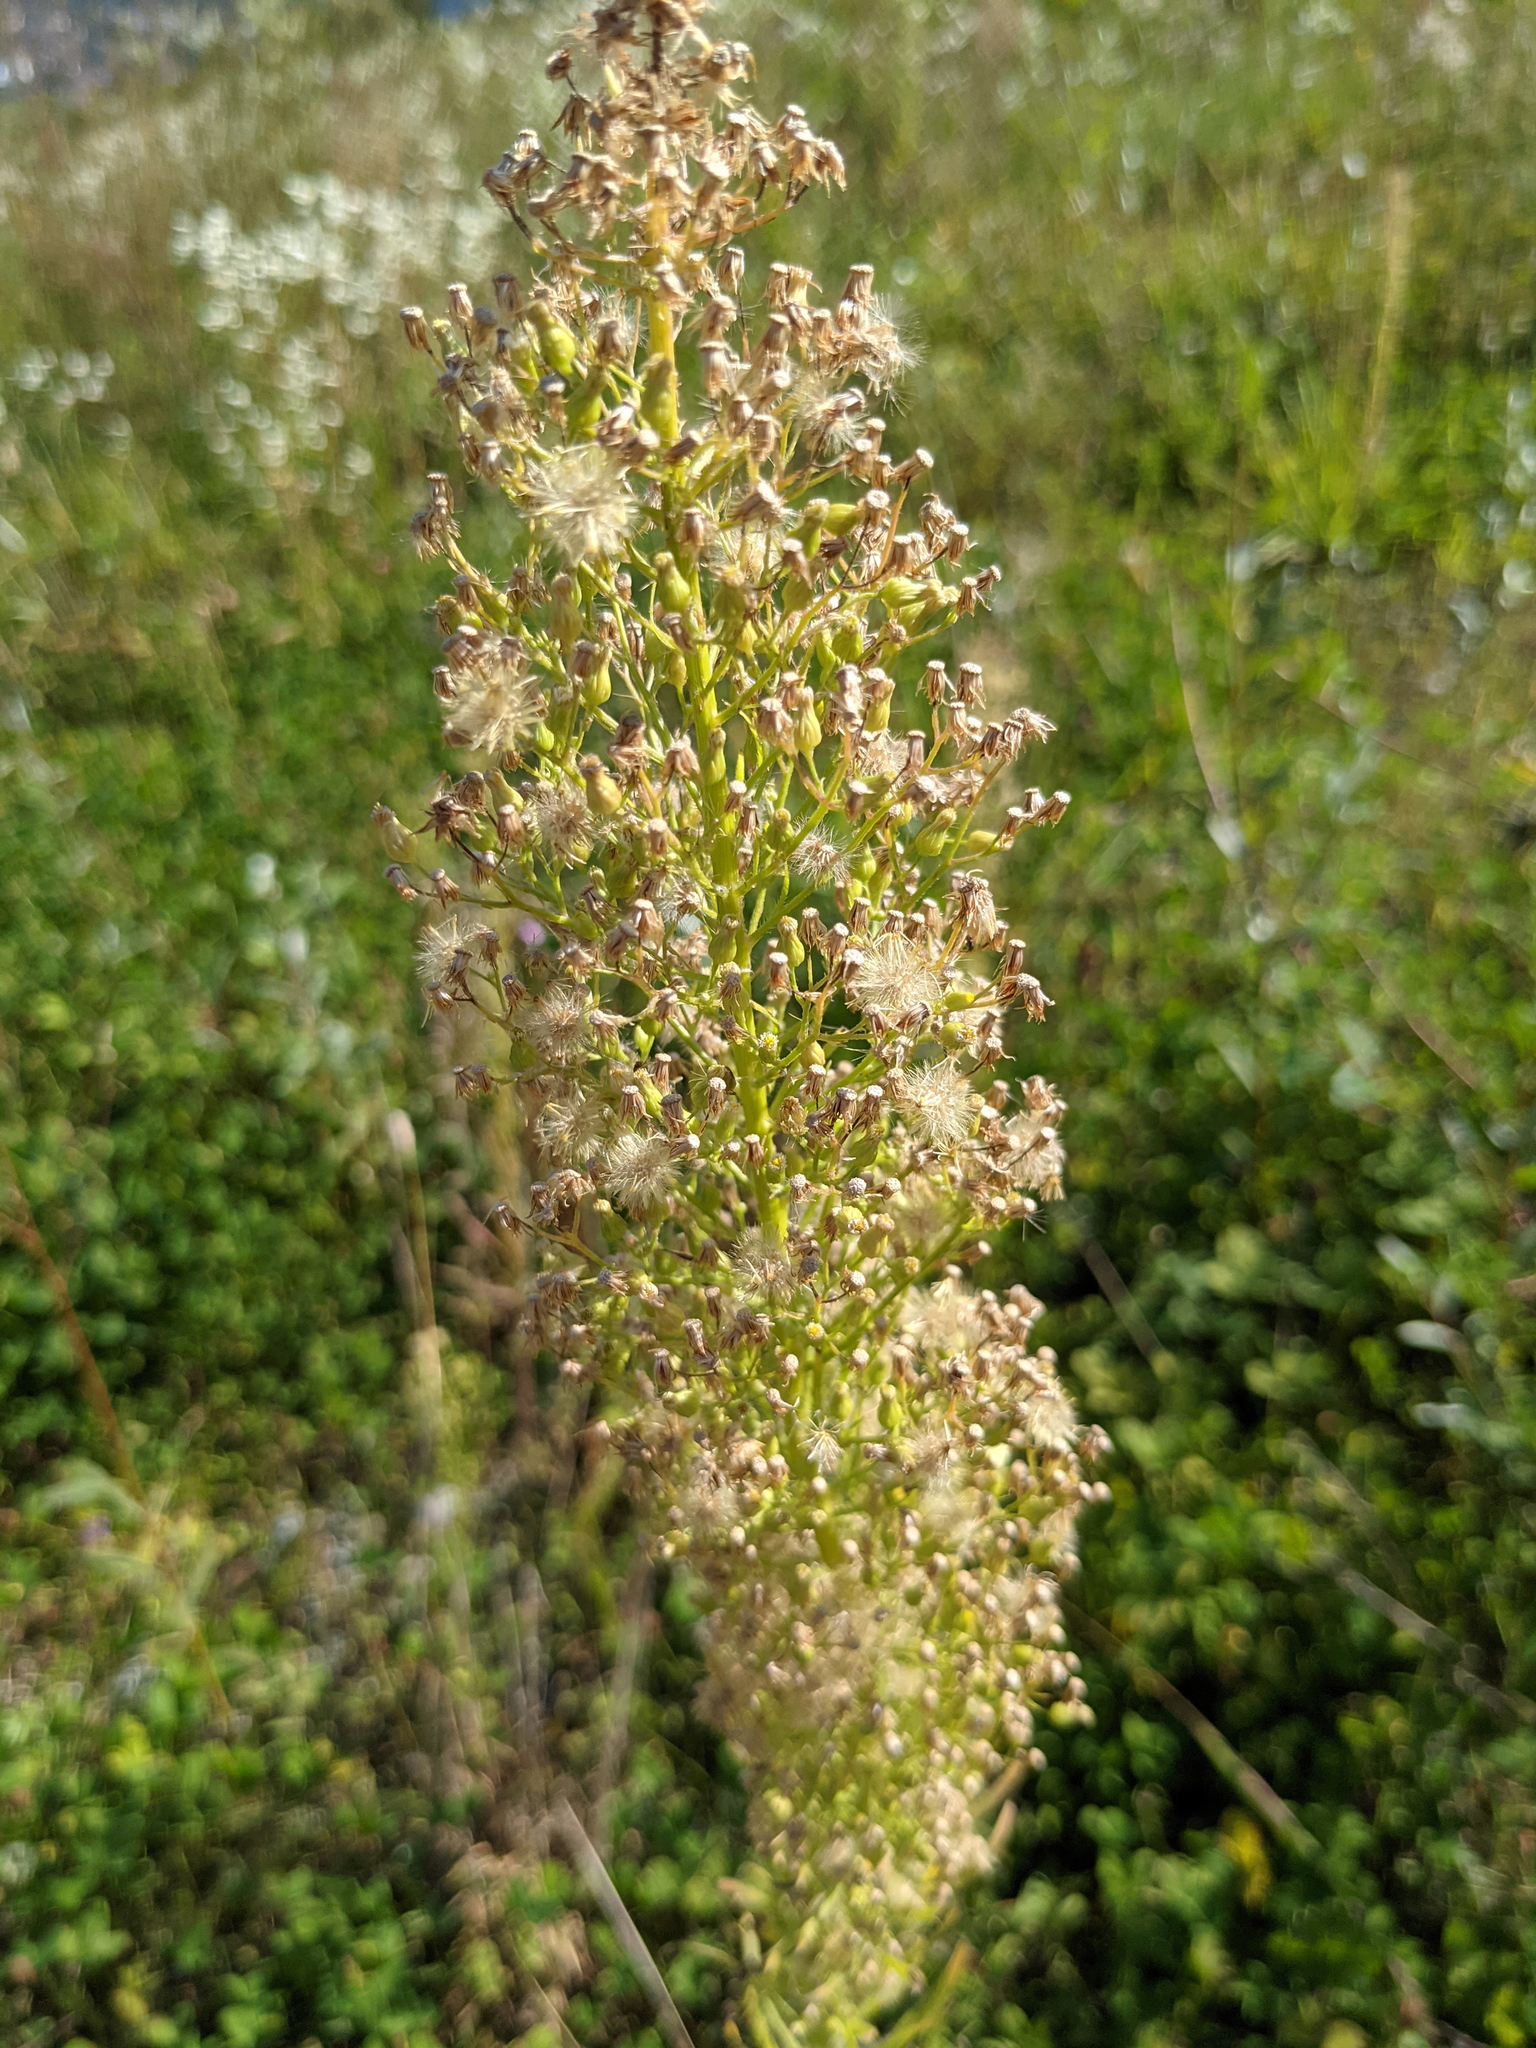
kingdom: Plantae
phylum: Tracheophyta
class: Magnoliopsida
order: Asterales
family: Asteraceae
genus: Erigeron
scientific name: Erigeron canadensis
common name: Canadian fleabane
